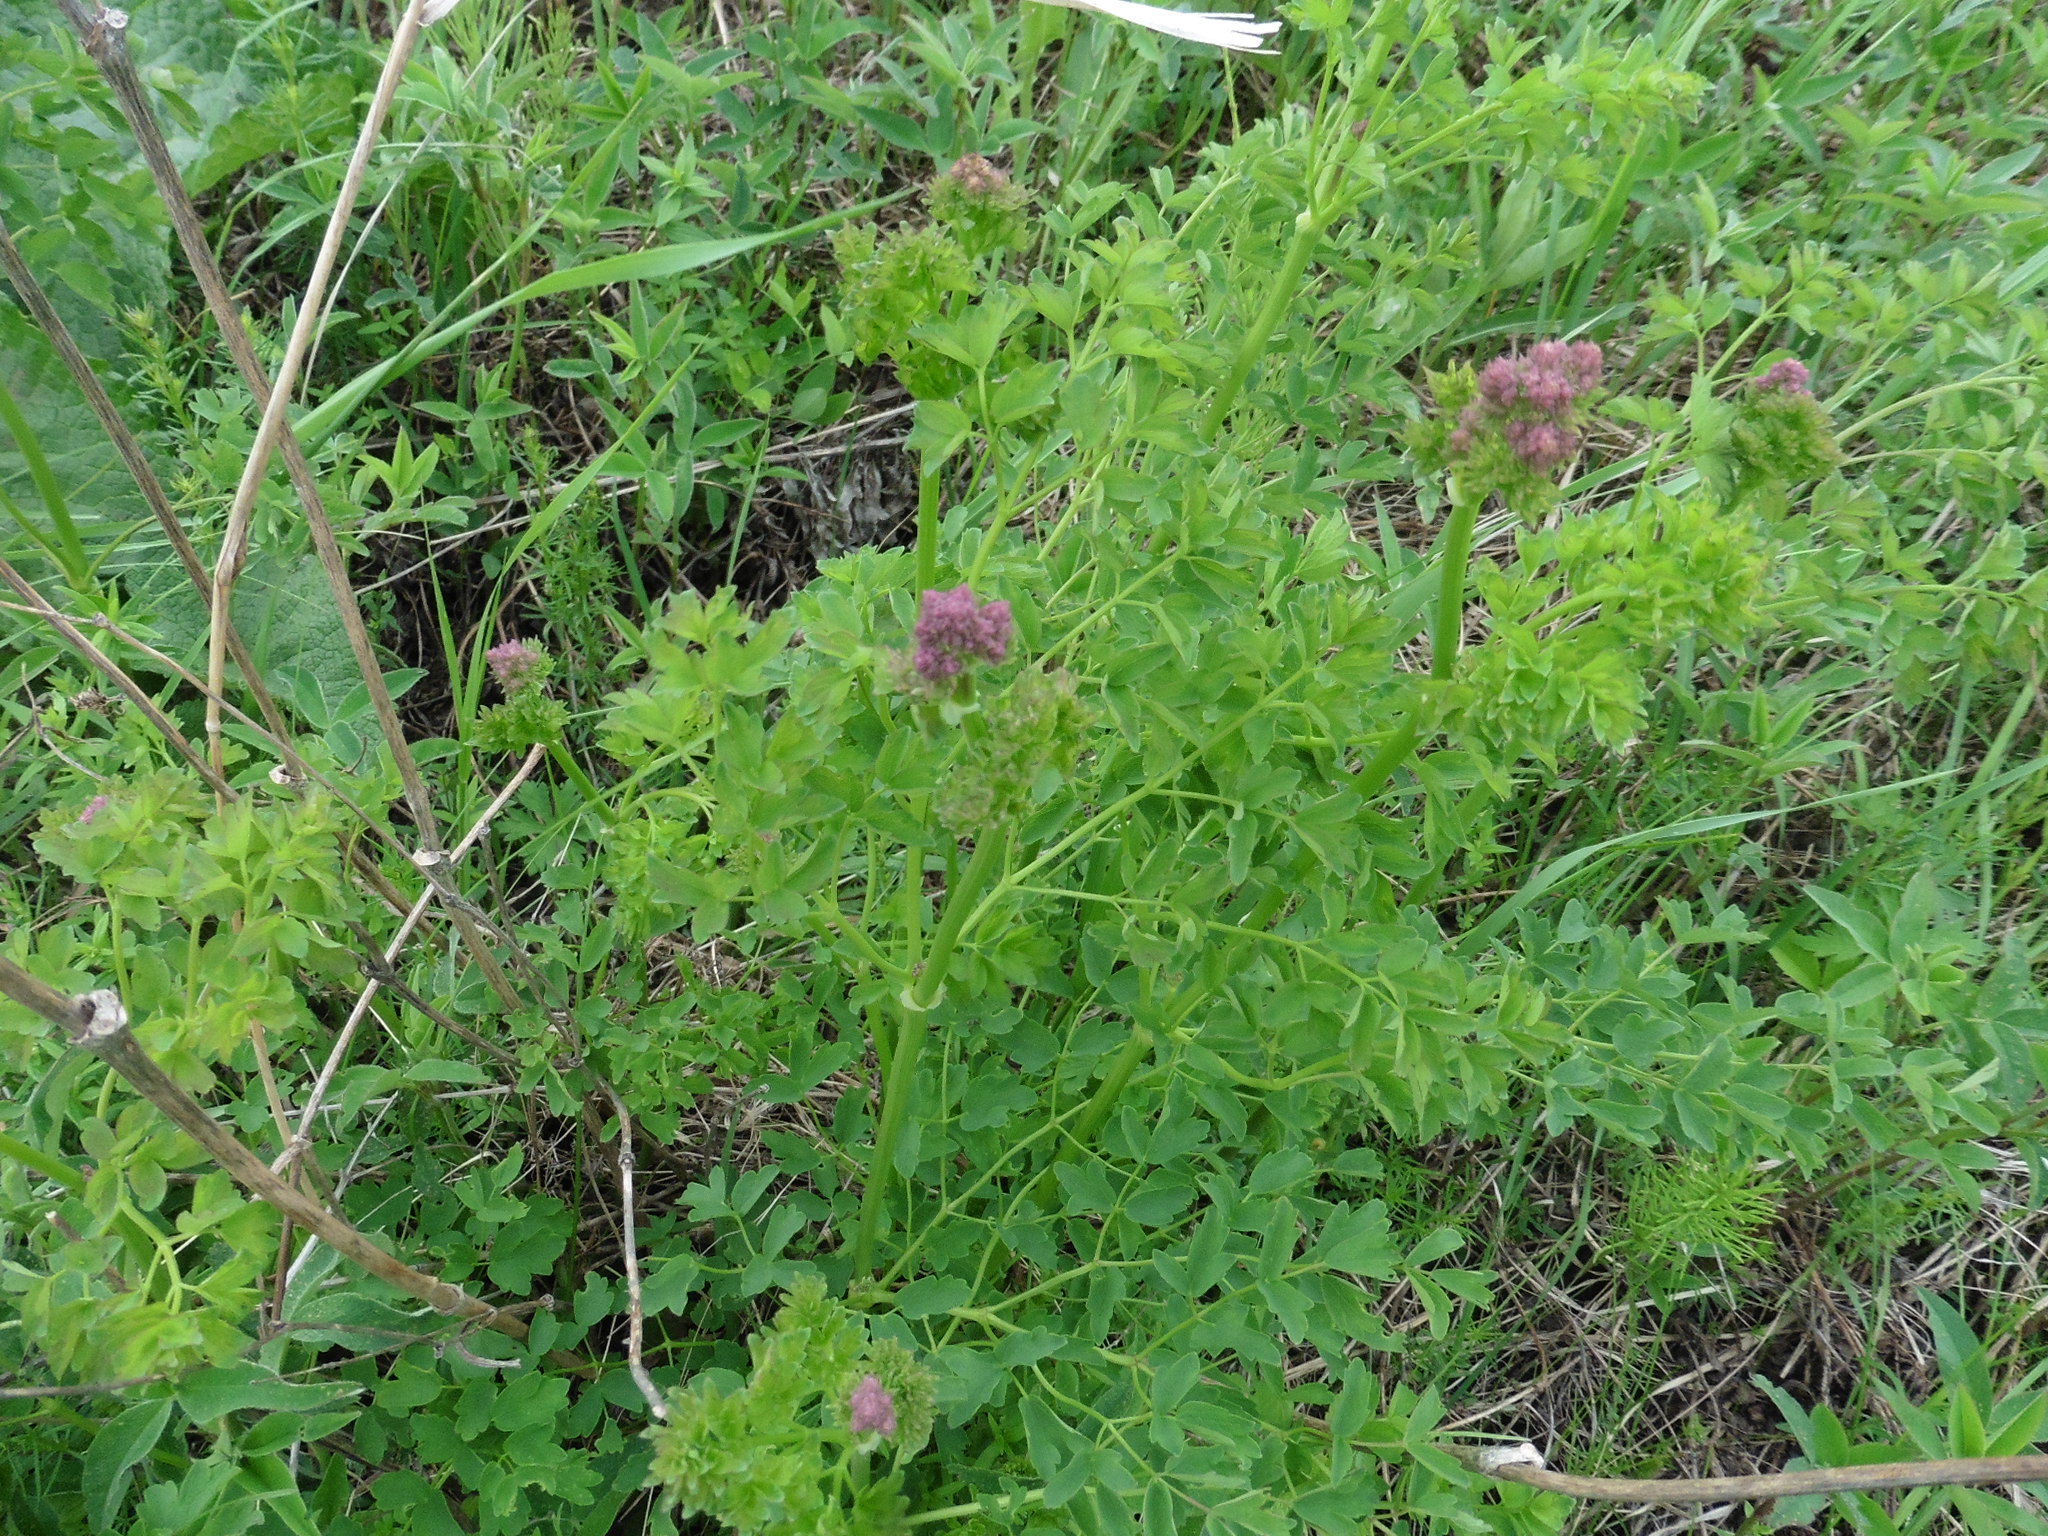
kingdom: Plantae
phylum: Tracheophyta
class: Magnoliopsida
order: Ranunculales
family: Ranunculaceae
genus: Thalictrum
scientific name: Thalictrum minus
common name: Lesser meadow-rue
